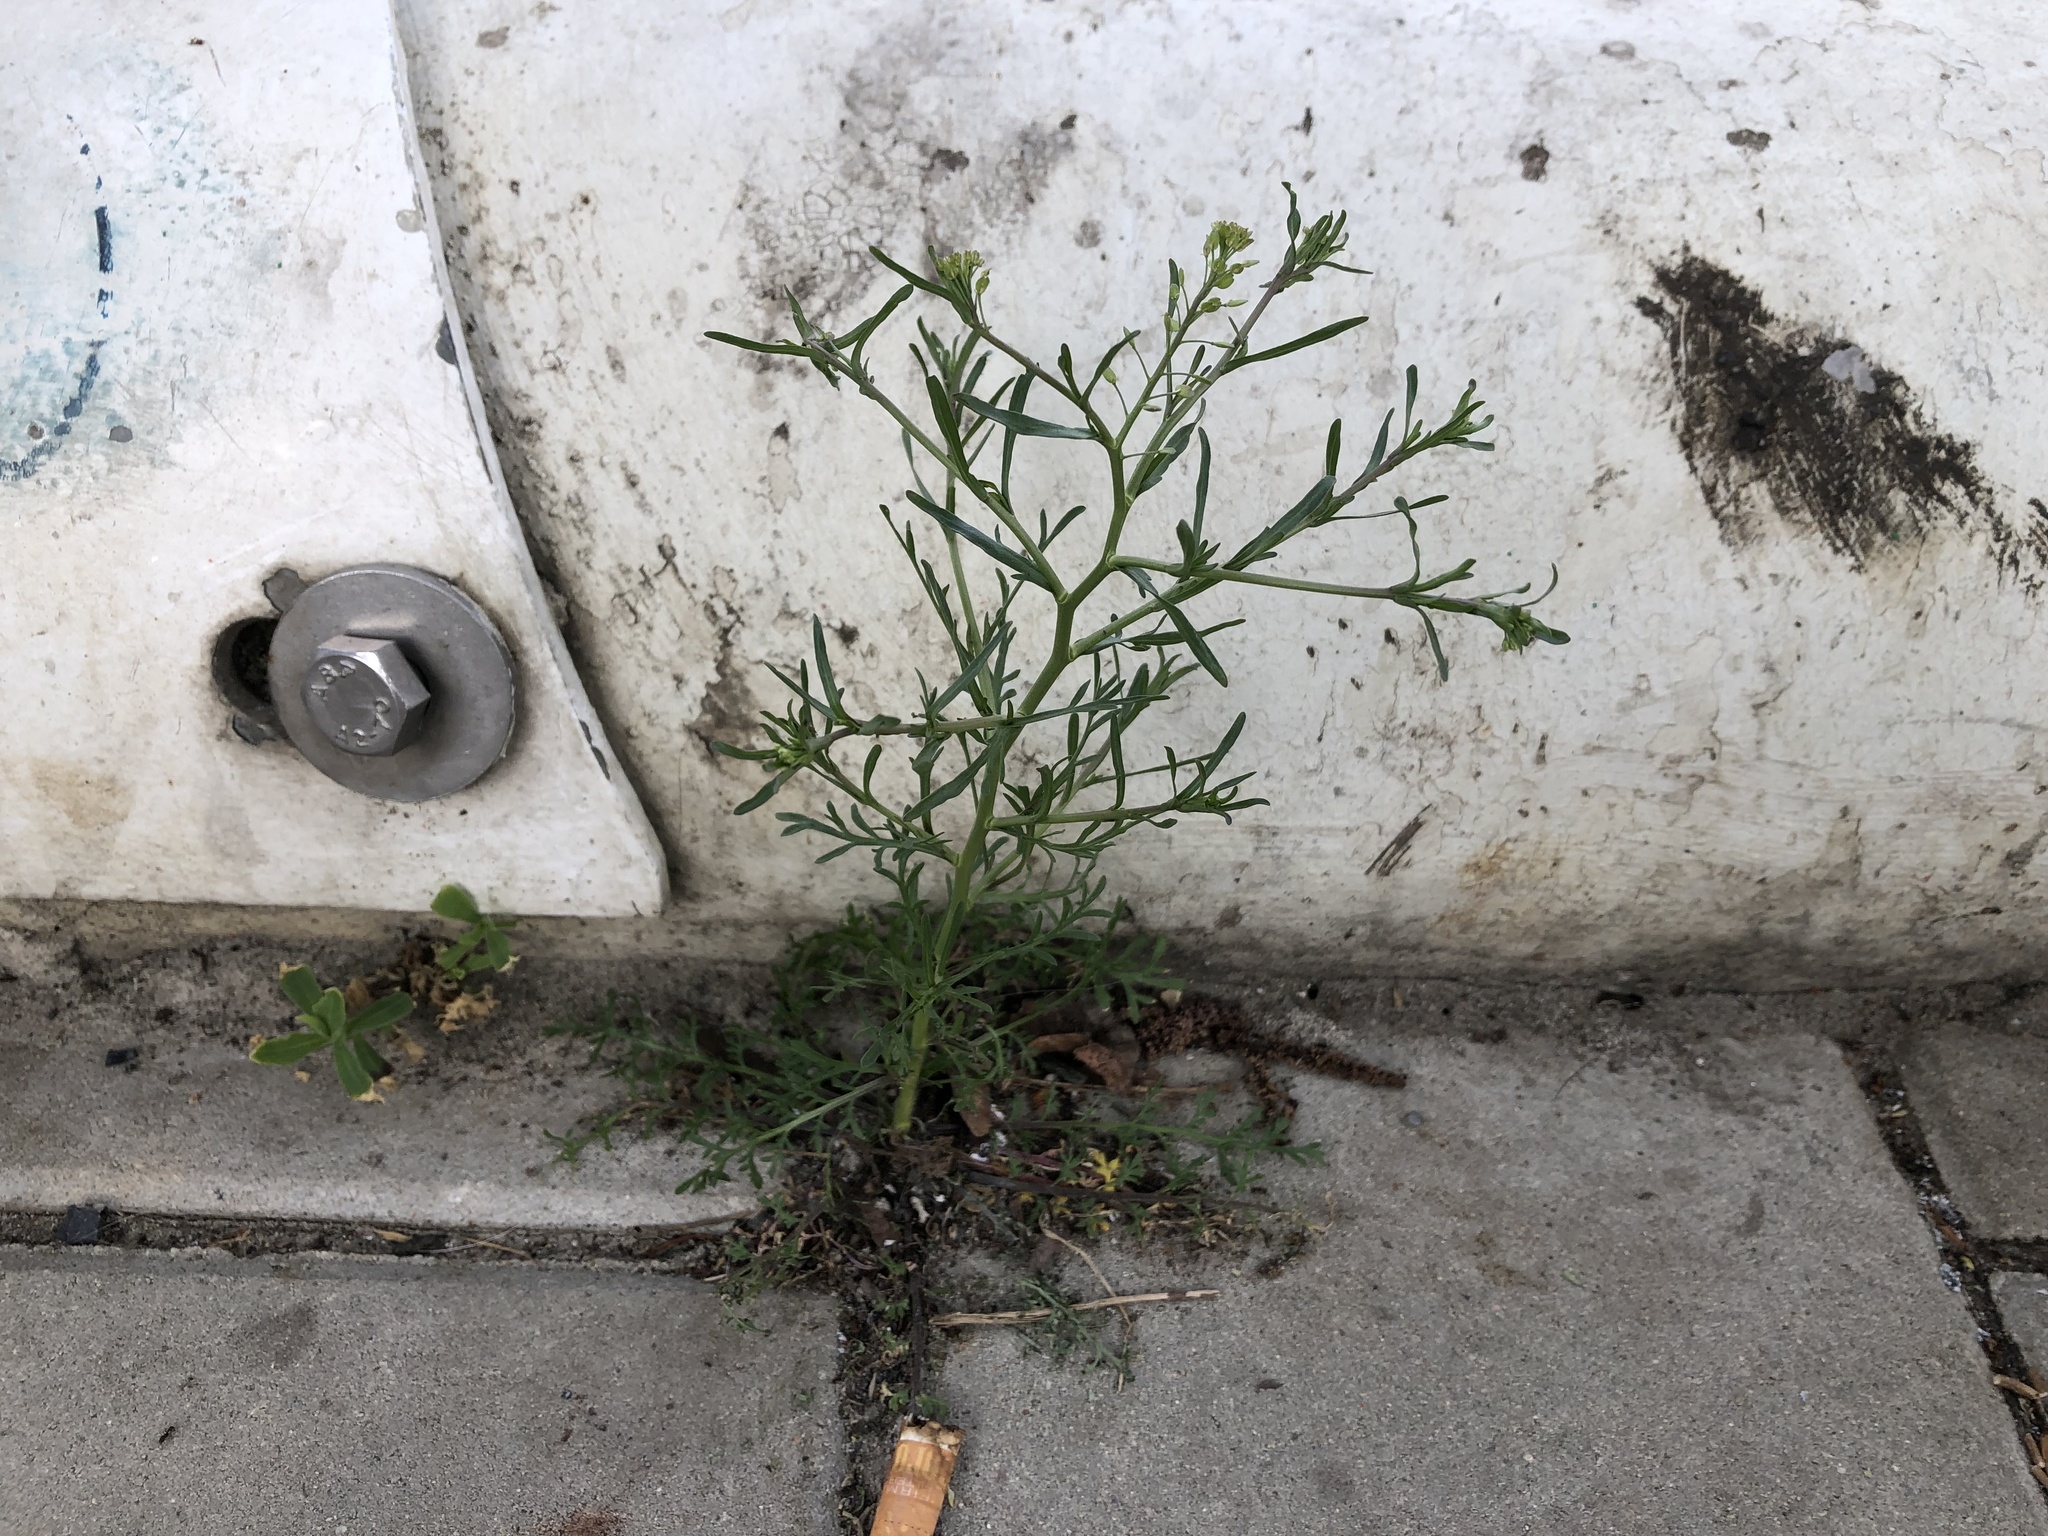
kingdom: Plantae
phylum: Tracheophyta
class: Magnoliopsida
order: Brassicales
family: Brassicaceae
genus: Lepidium
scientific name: Lepidium ruderale
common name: Narrow-leaved pepperwort
